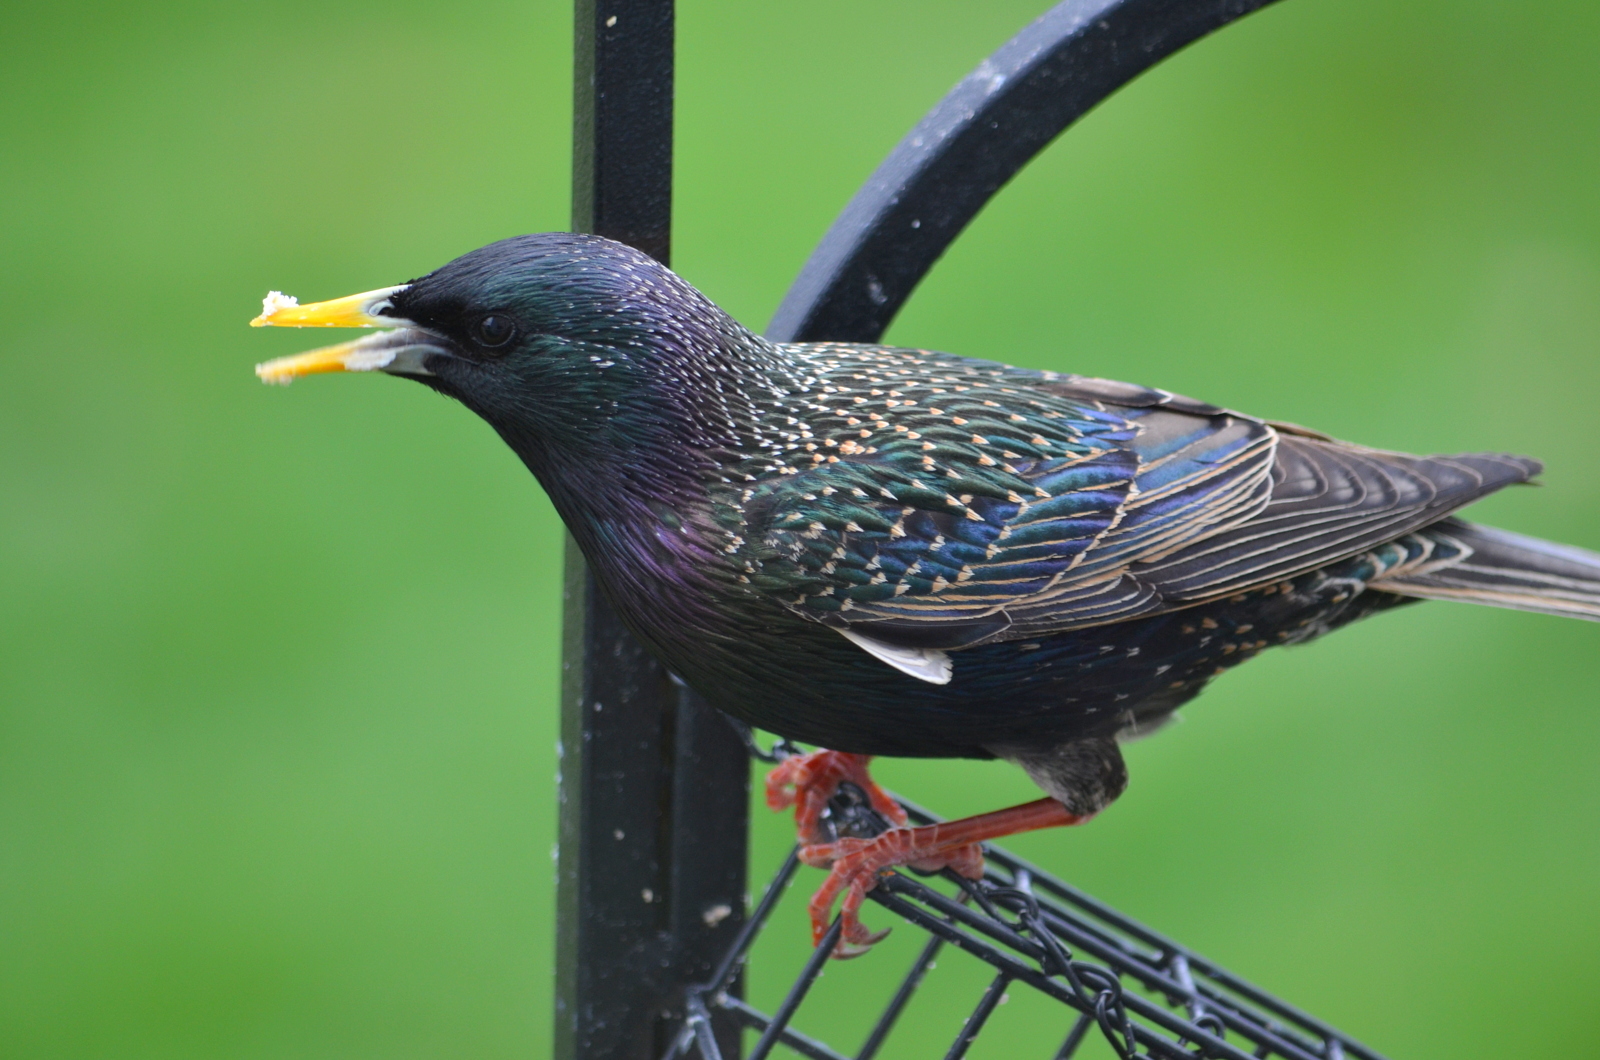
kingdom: Animalia
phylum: Chordata
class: Aves
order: Passeriformes
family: Sturnidae
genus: Sturnus
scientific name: Sturnus vulgaris
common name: Common starling
